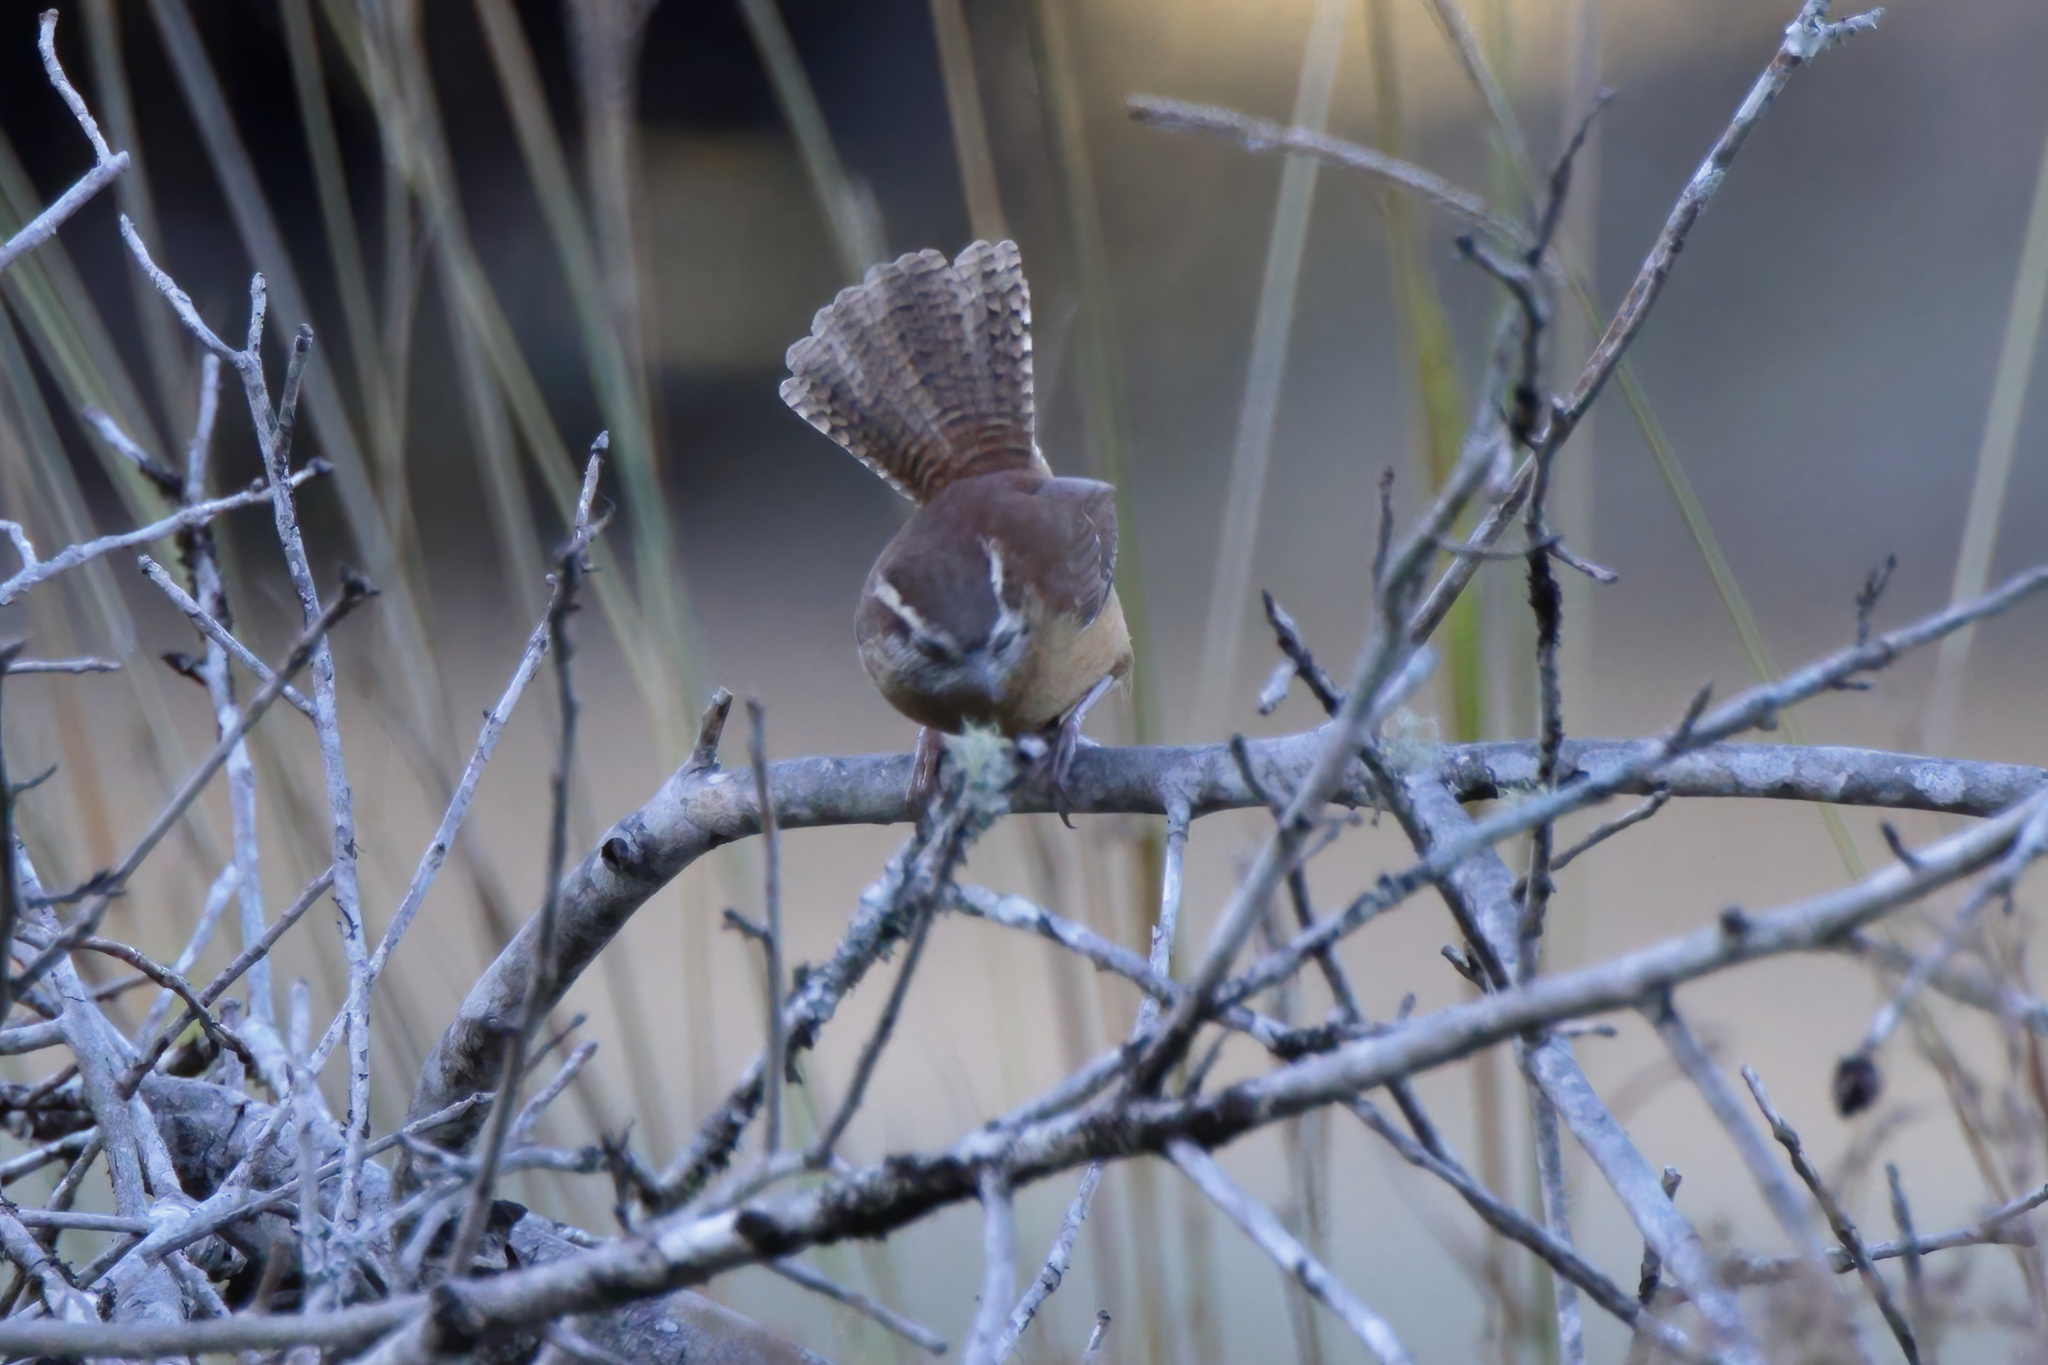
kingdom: Animalia
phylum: Chordata
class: Aves
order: Passeriformes
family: Troglodytidae
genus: Thryothorus
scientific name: Thryothorus ludovicianus
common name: Carolina wren
